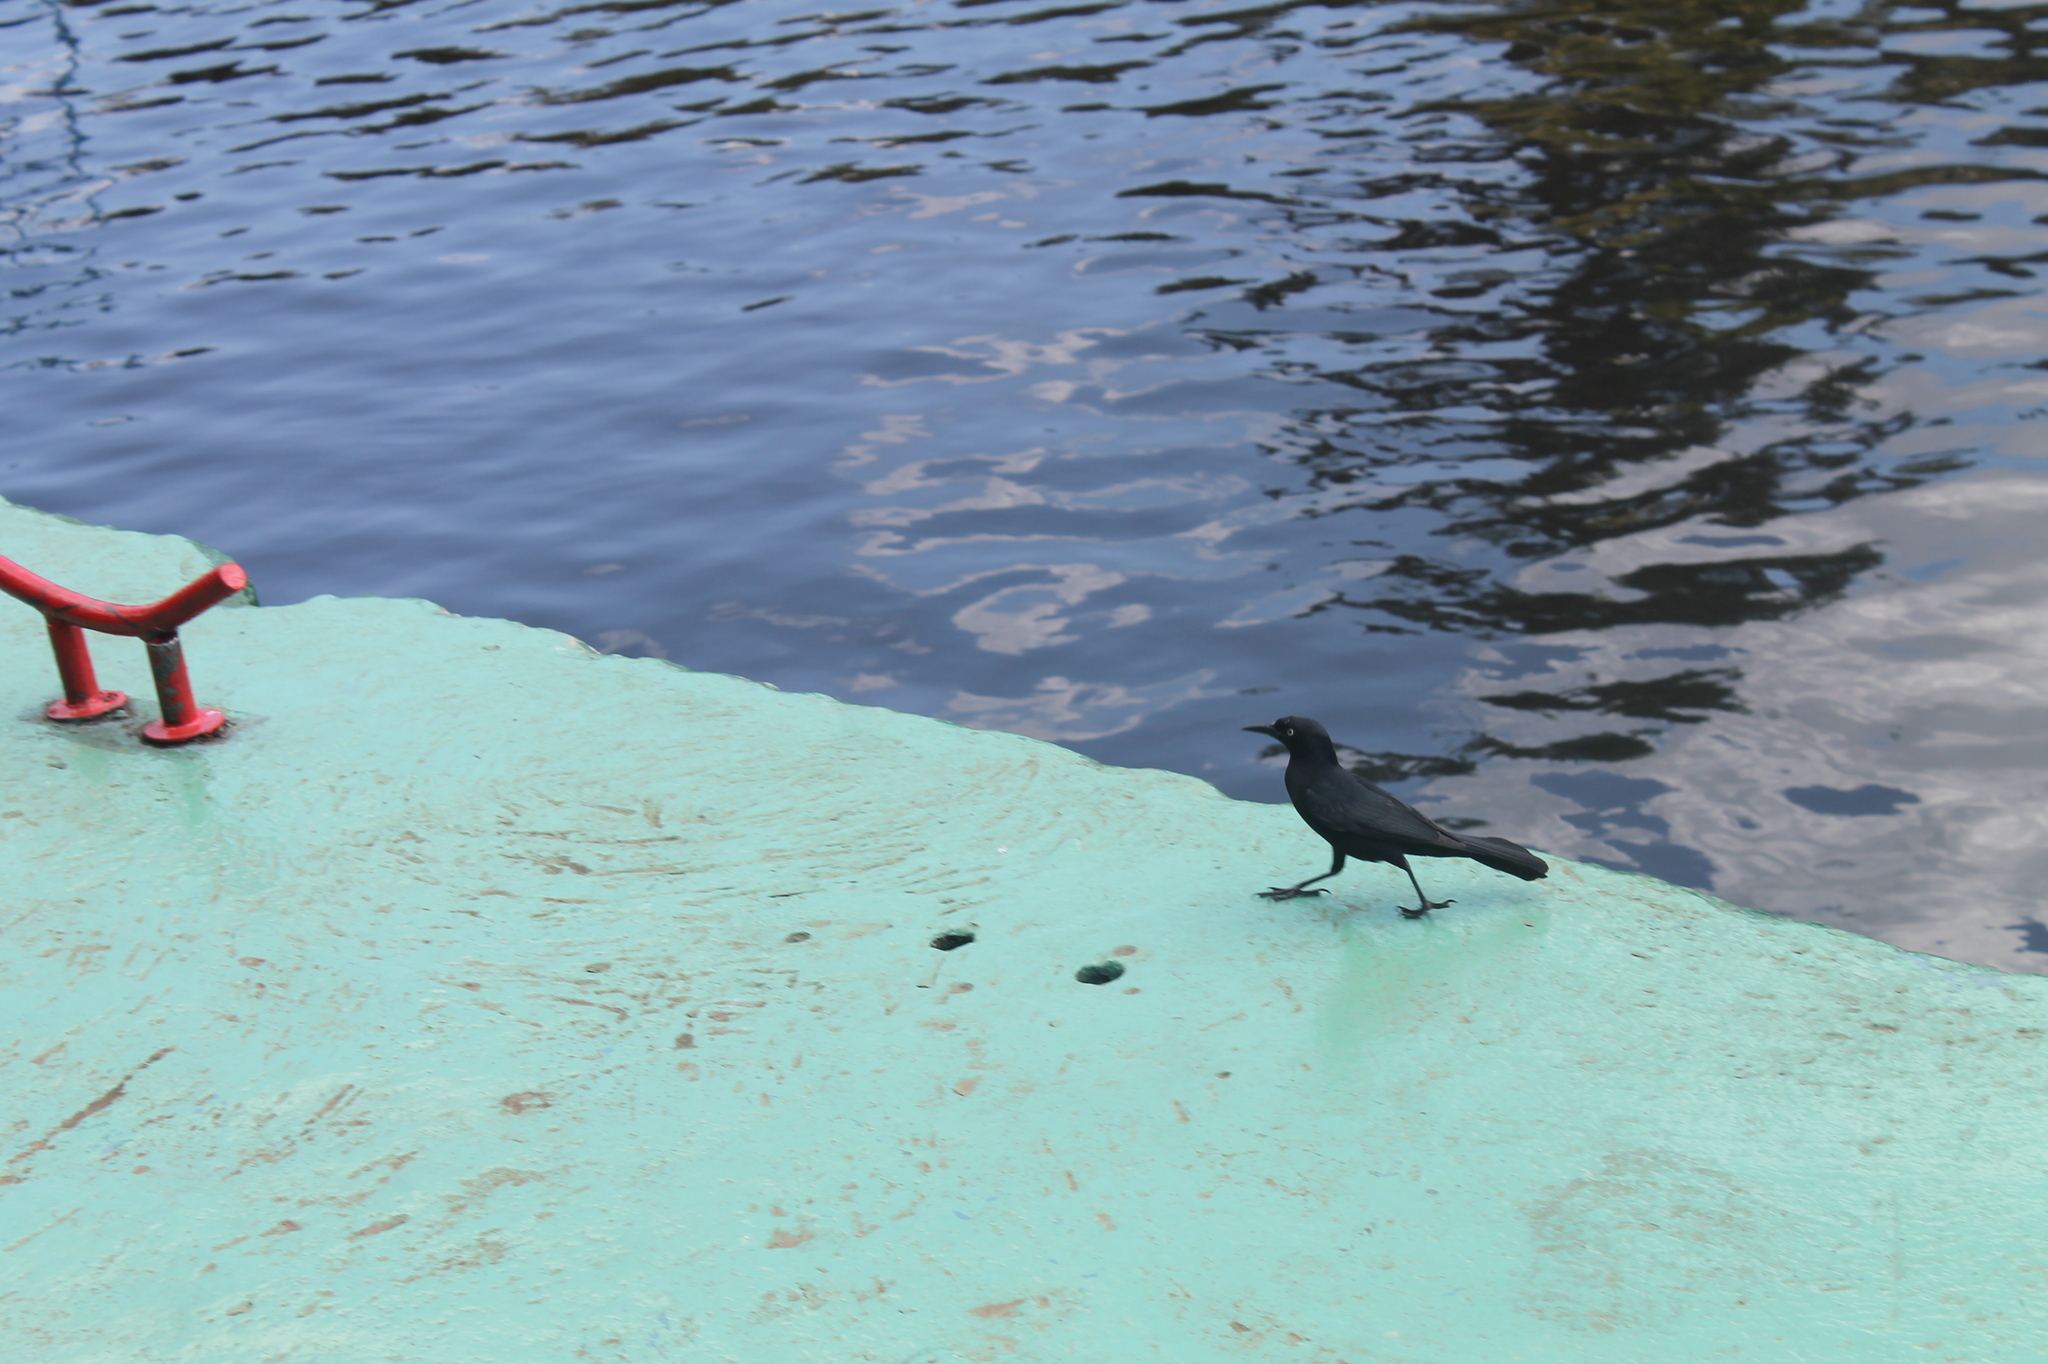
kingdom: Animalia
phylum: Chordata
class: Aves
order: Passeriformes
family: Icteridae
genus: Quiscalus
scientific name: Quiscalus niger
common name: Greater antillean grackle
